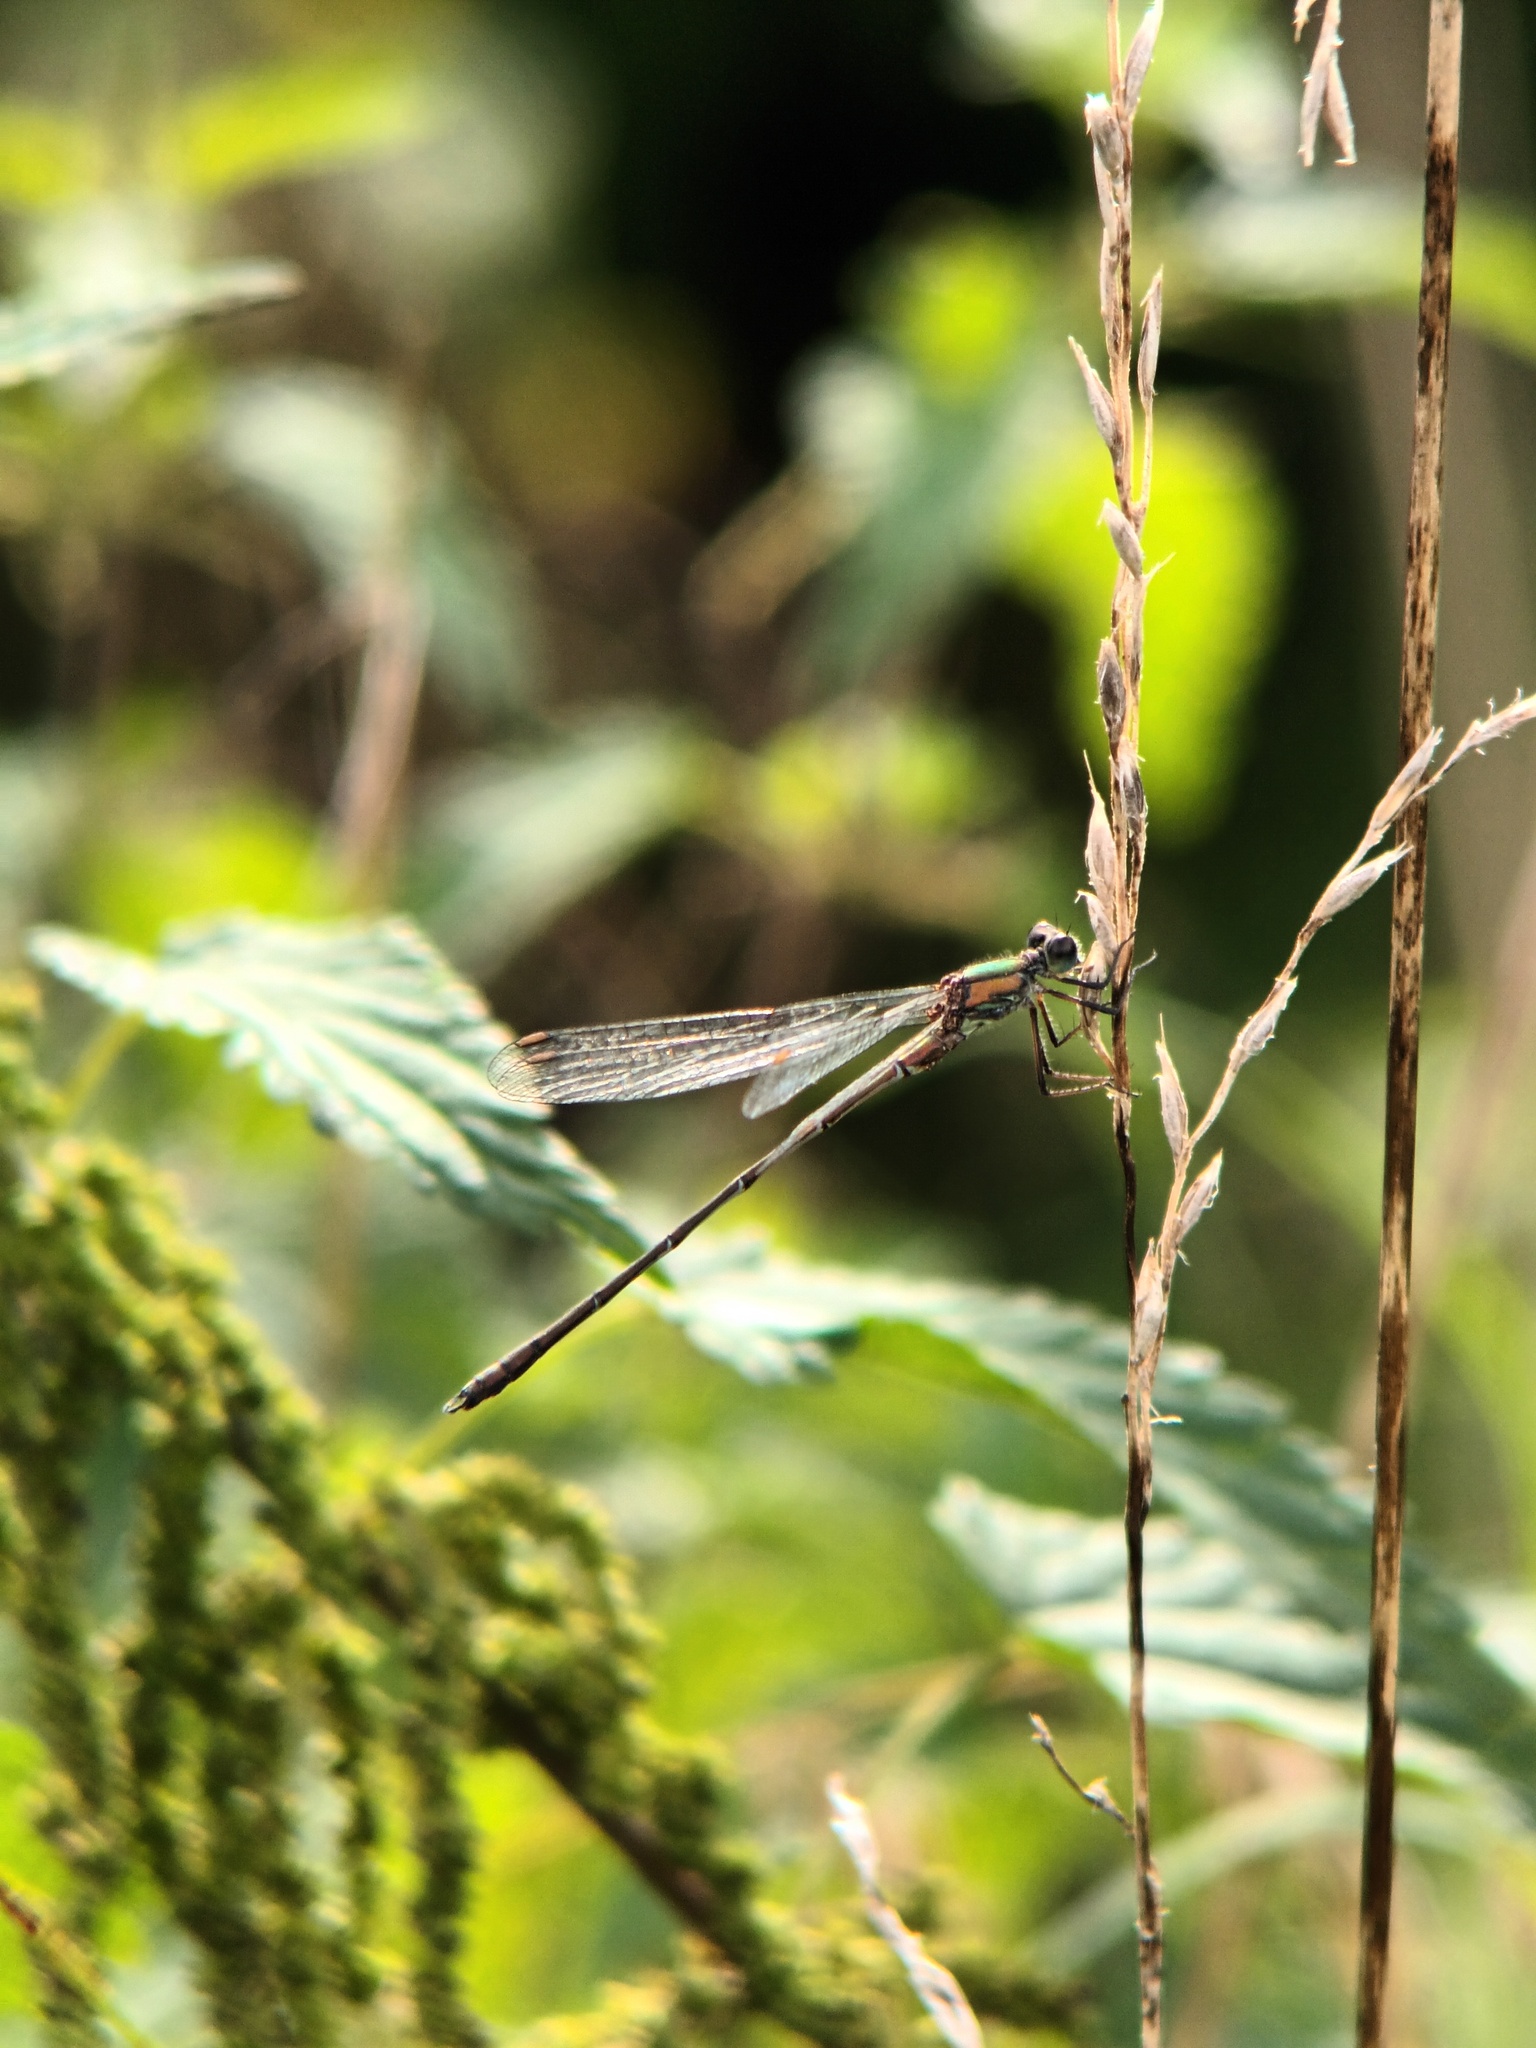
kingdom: Animalia
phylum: Arthropoda
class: Insecta
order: Odonata
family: Lestidae
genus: Chalcolestes
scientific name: Chalcolestes viridis
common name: Green emerald damselfly
